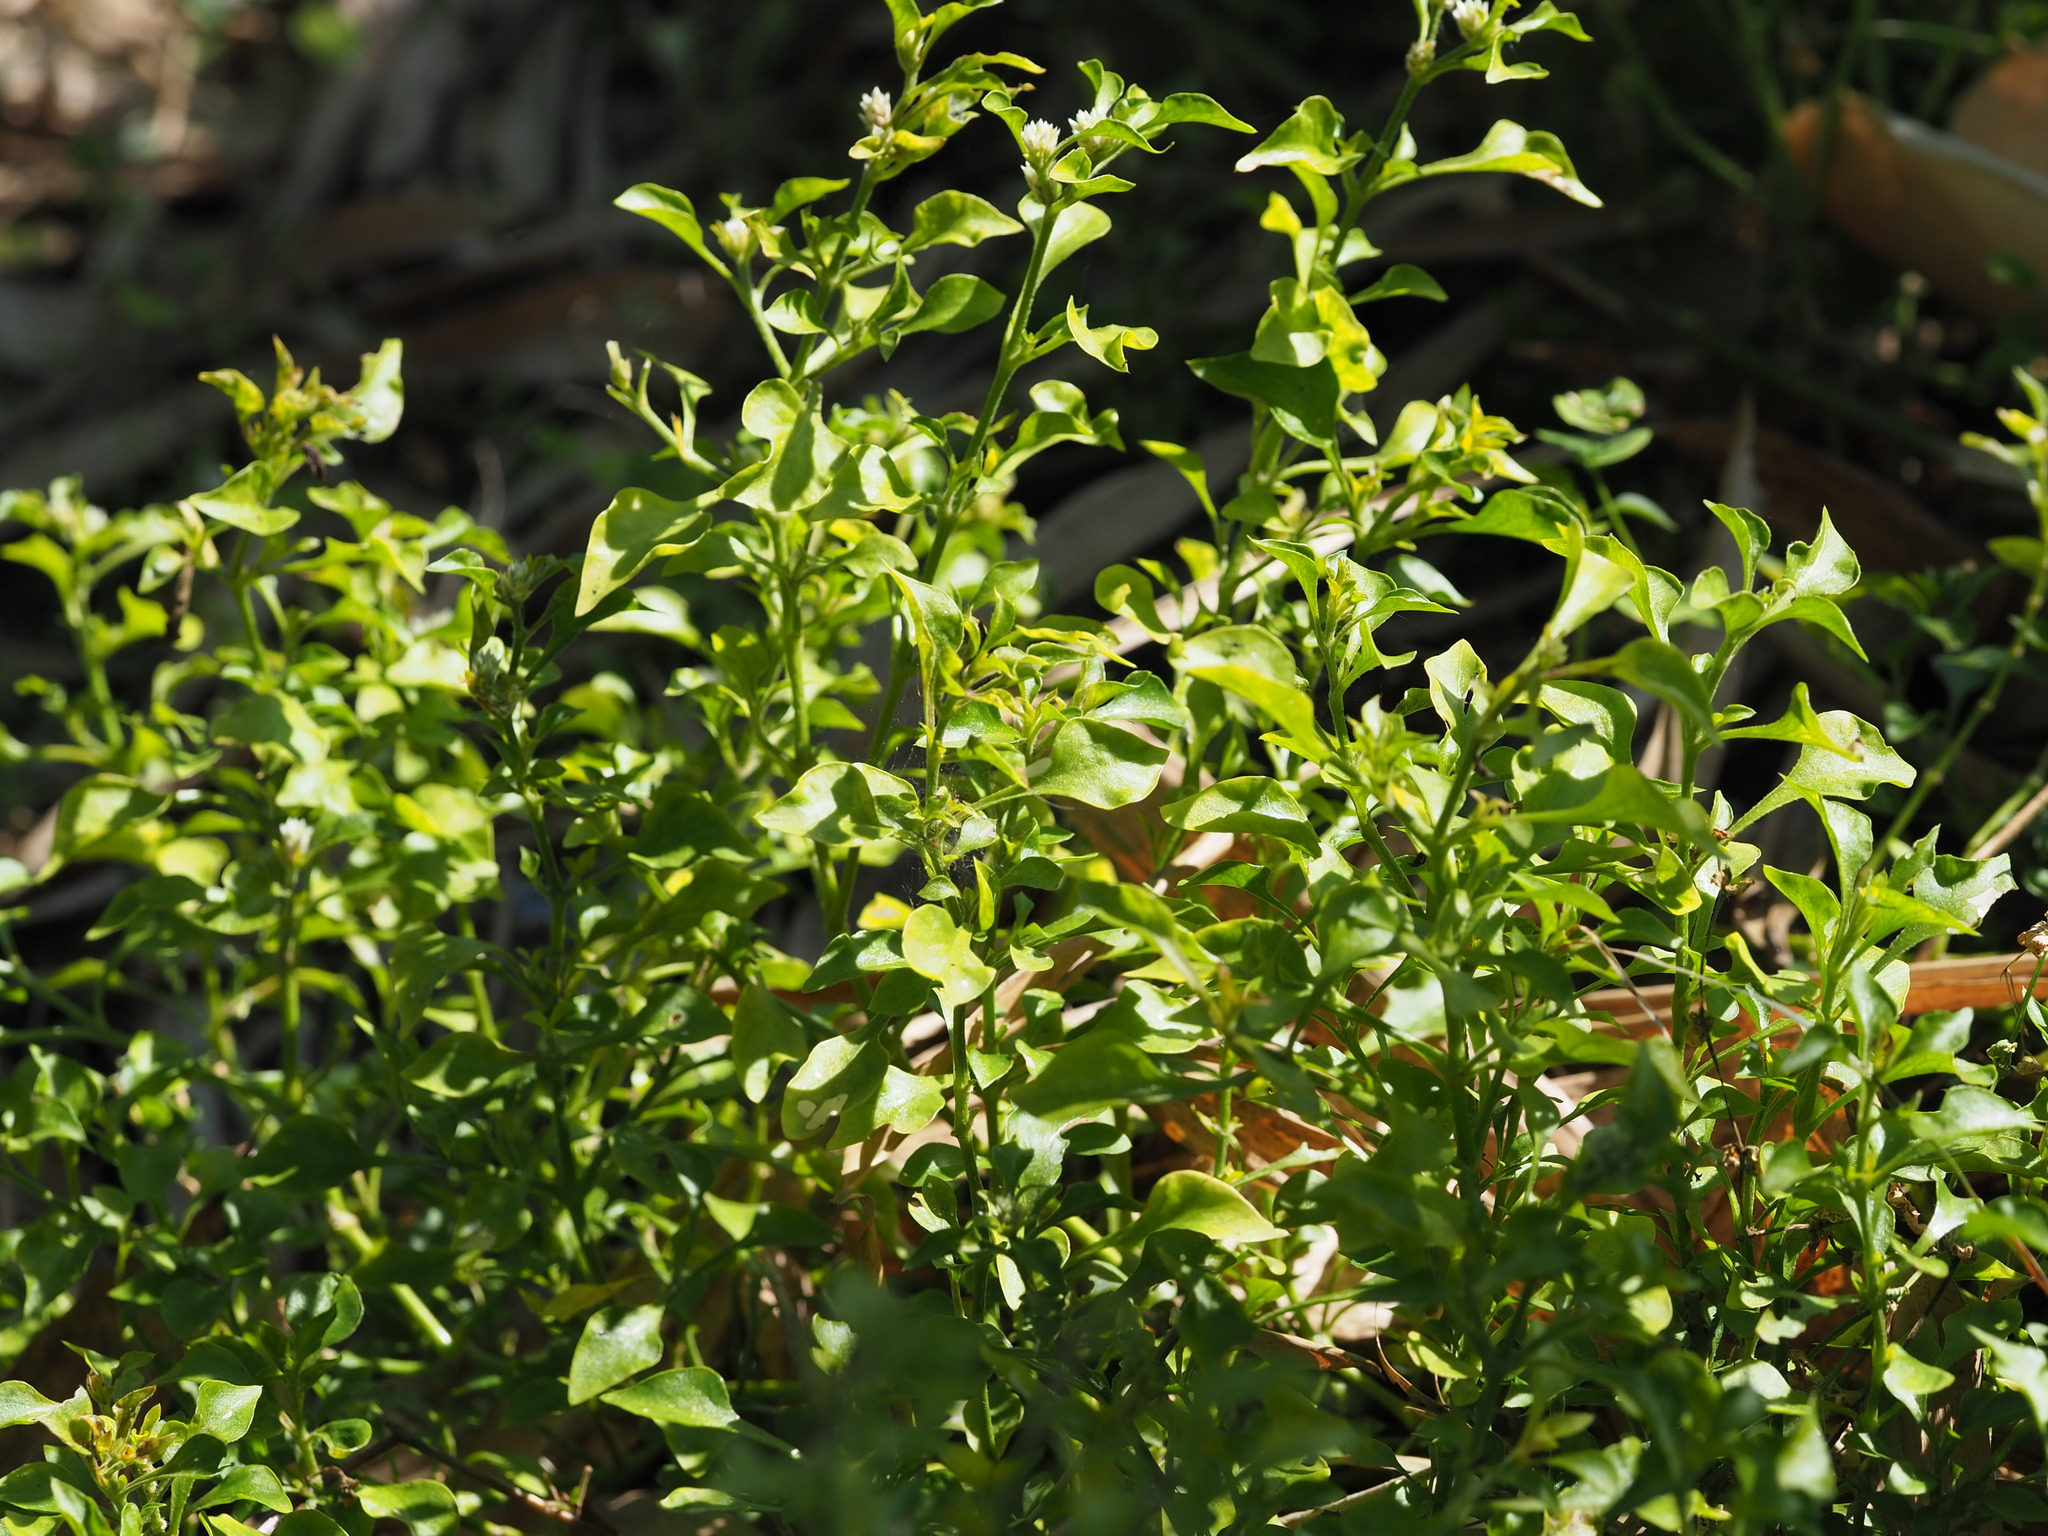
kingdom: Plantae
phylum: Tracheophyta
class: Magnoliopsida
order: Caryophyllales
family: Amaranthaceae
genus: Alternanthera
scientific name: Alternanthera bettzickiana
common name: Calico-plant
